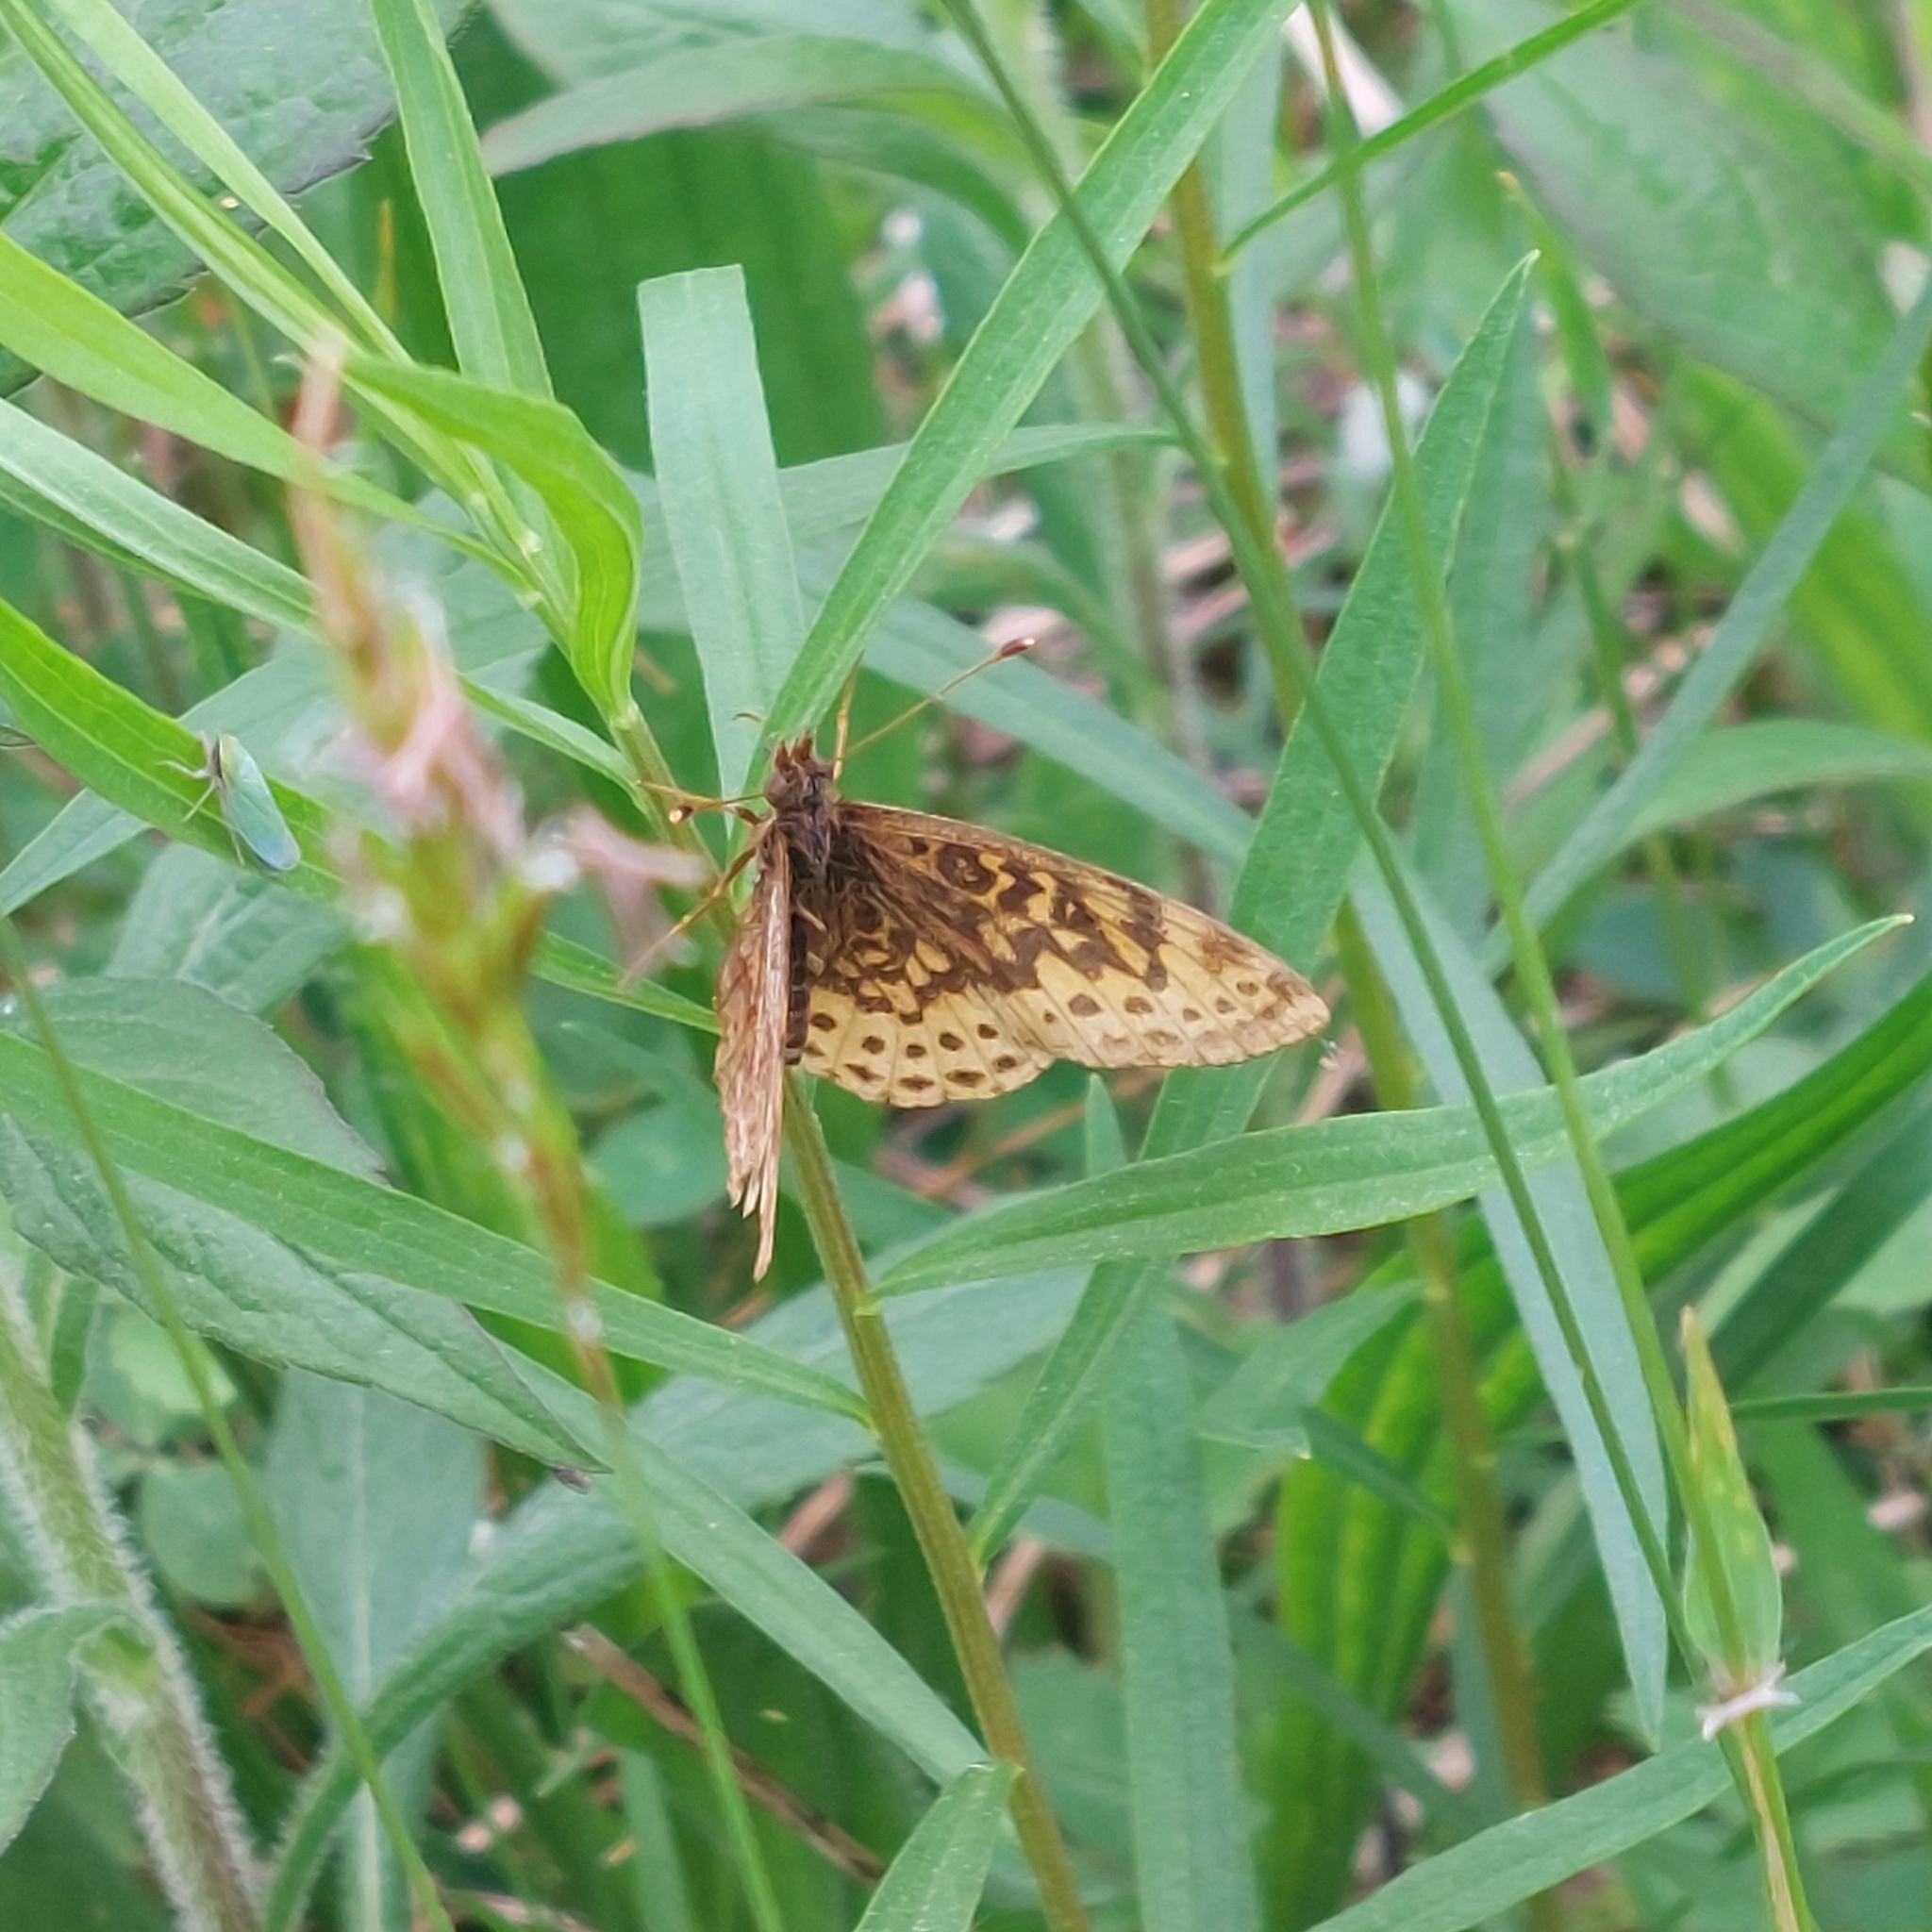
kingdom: Animalia
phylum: Arthropoda
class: Insecta
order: Lepidoptera
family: Nymphalidae
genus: Clossiana
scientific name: Clossiana toddi
